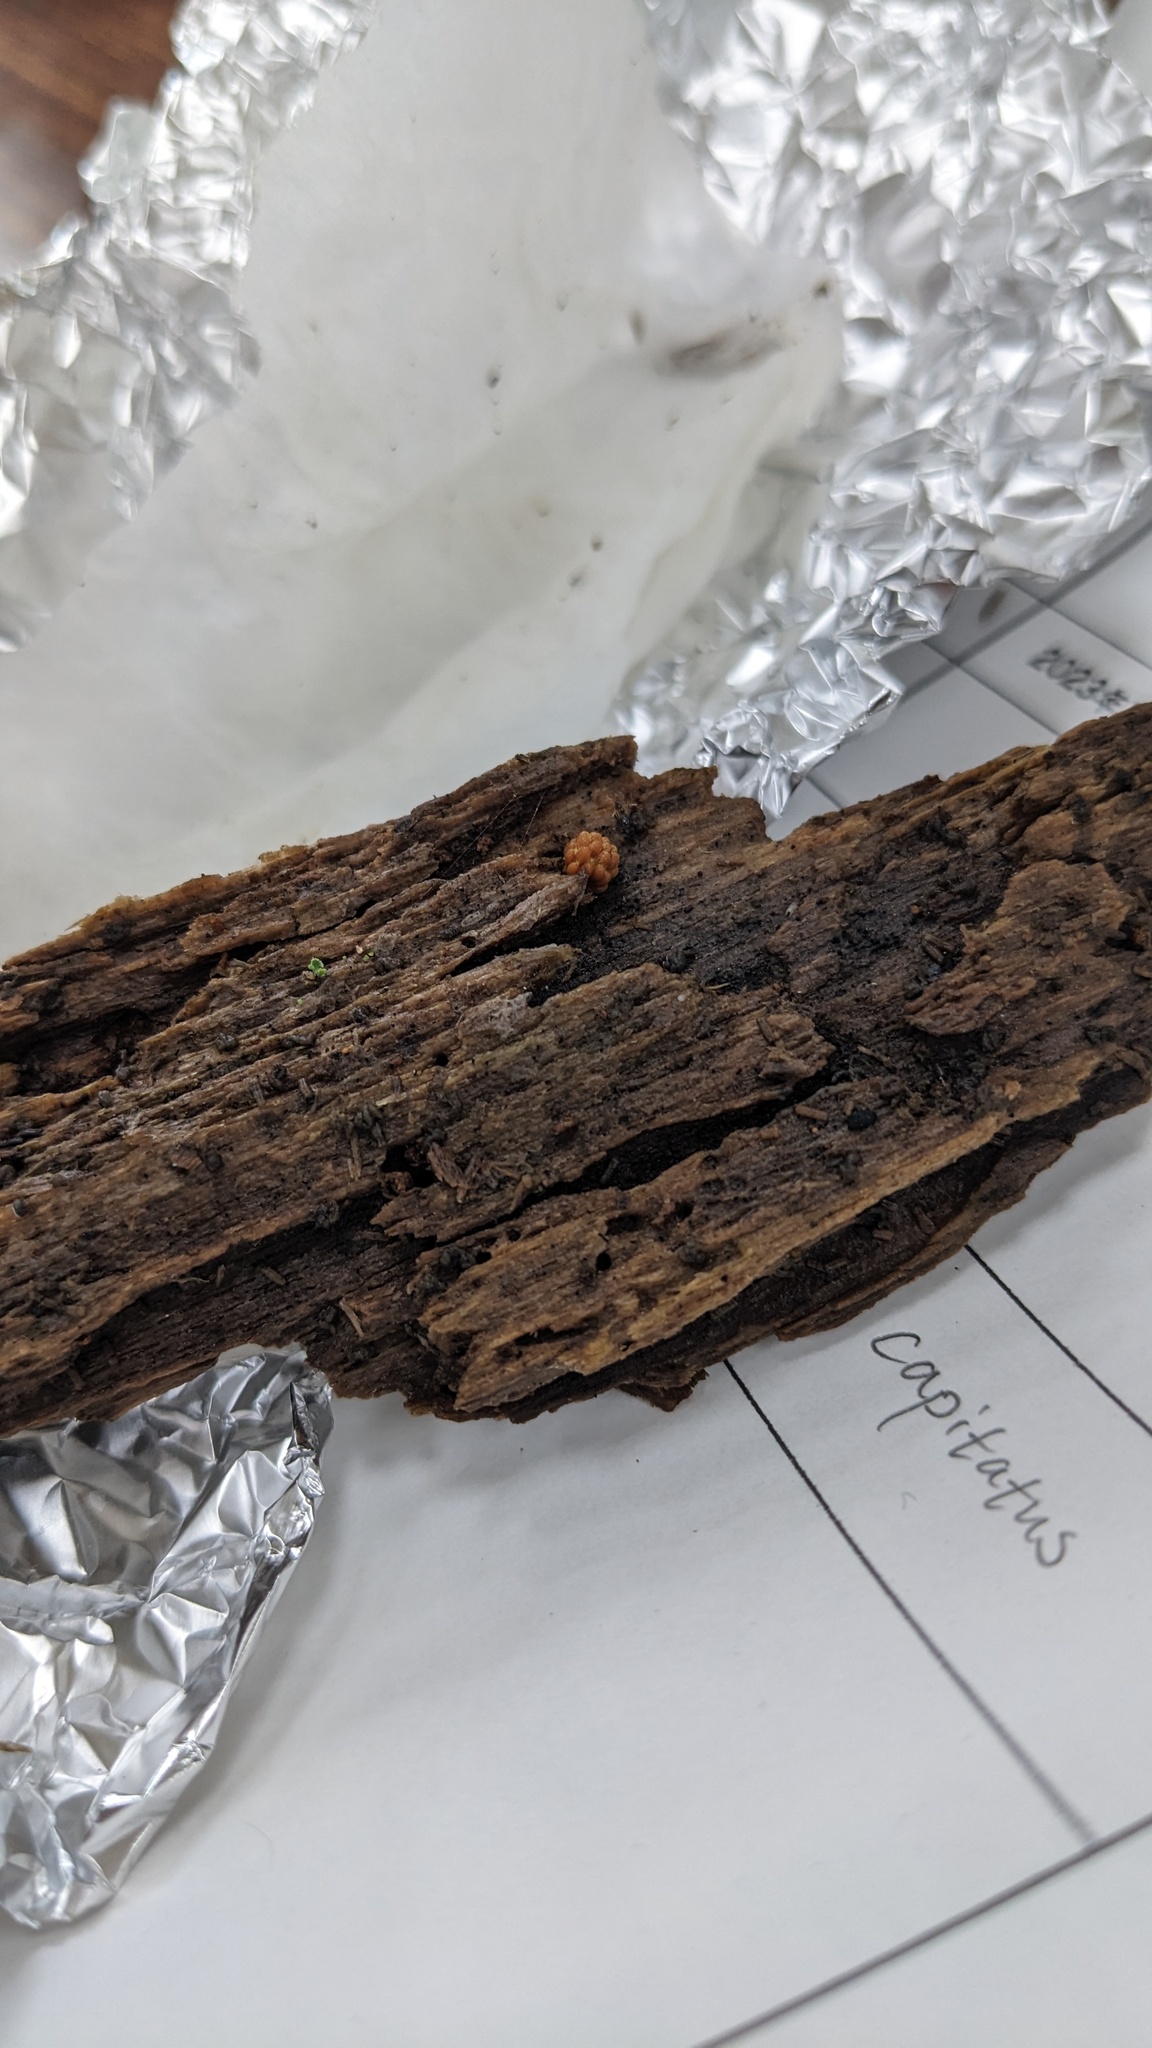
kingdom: Fungi
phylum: Basidiomycota
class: Agaricomycetes
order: Agaricales
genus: Synnematomyces
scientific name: Synnematomyces capitatus
